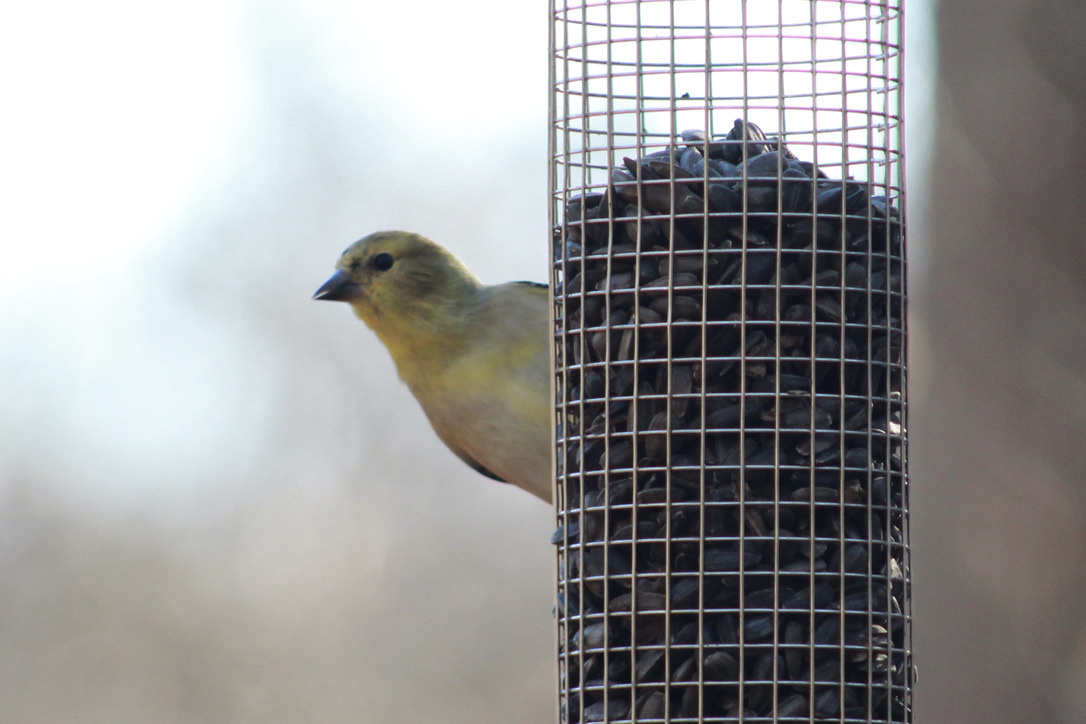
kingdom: Animalia
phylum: Chordata
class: Aves
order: Passeriformes
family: Fringillidae
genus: Spinus
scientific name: Spinus tristis
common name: American goldfinch
